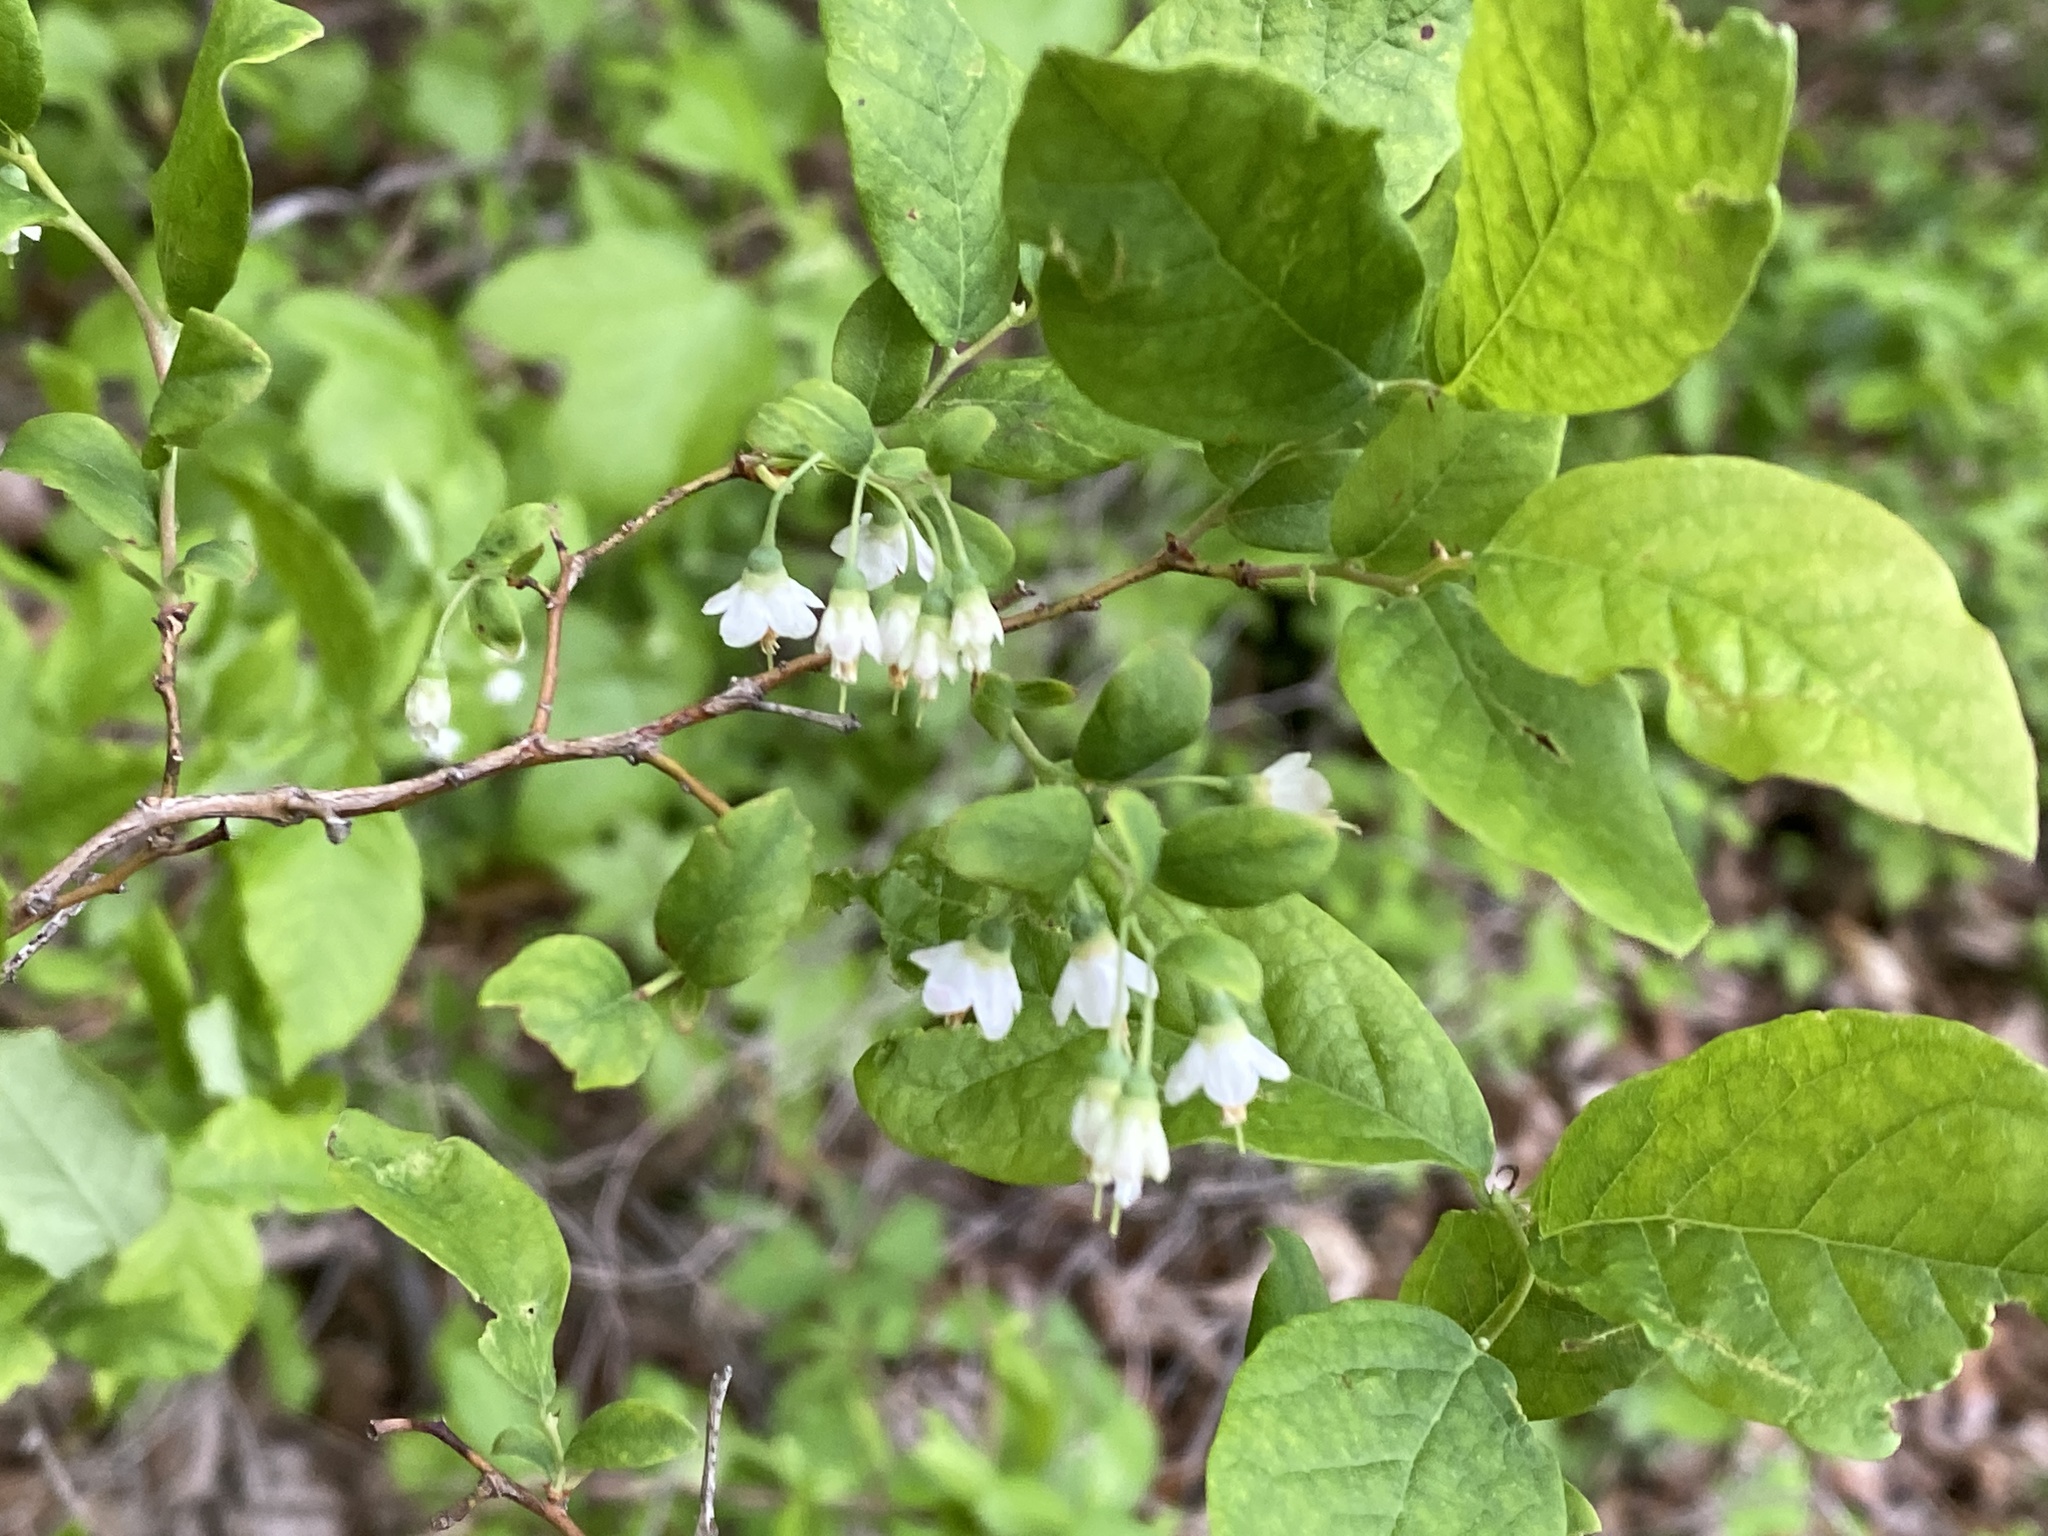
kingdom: Plantae
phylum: Tracheophyta
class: Magnoliopsida
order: Ericales
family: Ericaceae
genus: Vaccinium
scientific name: Vaccinium stamineum
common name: Deerberry
